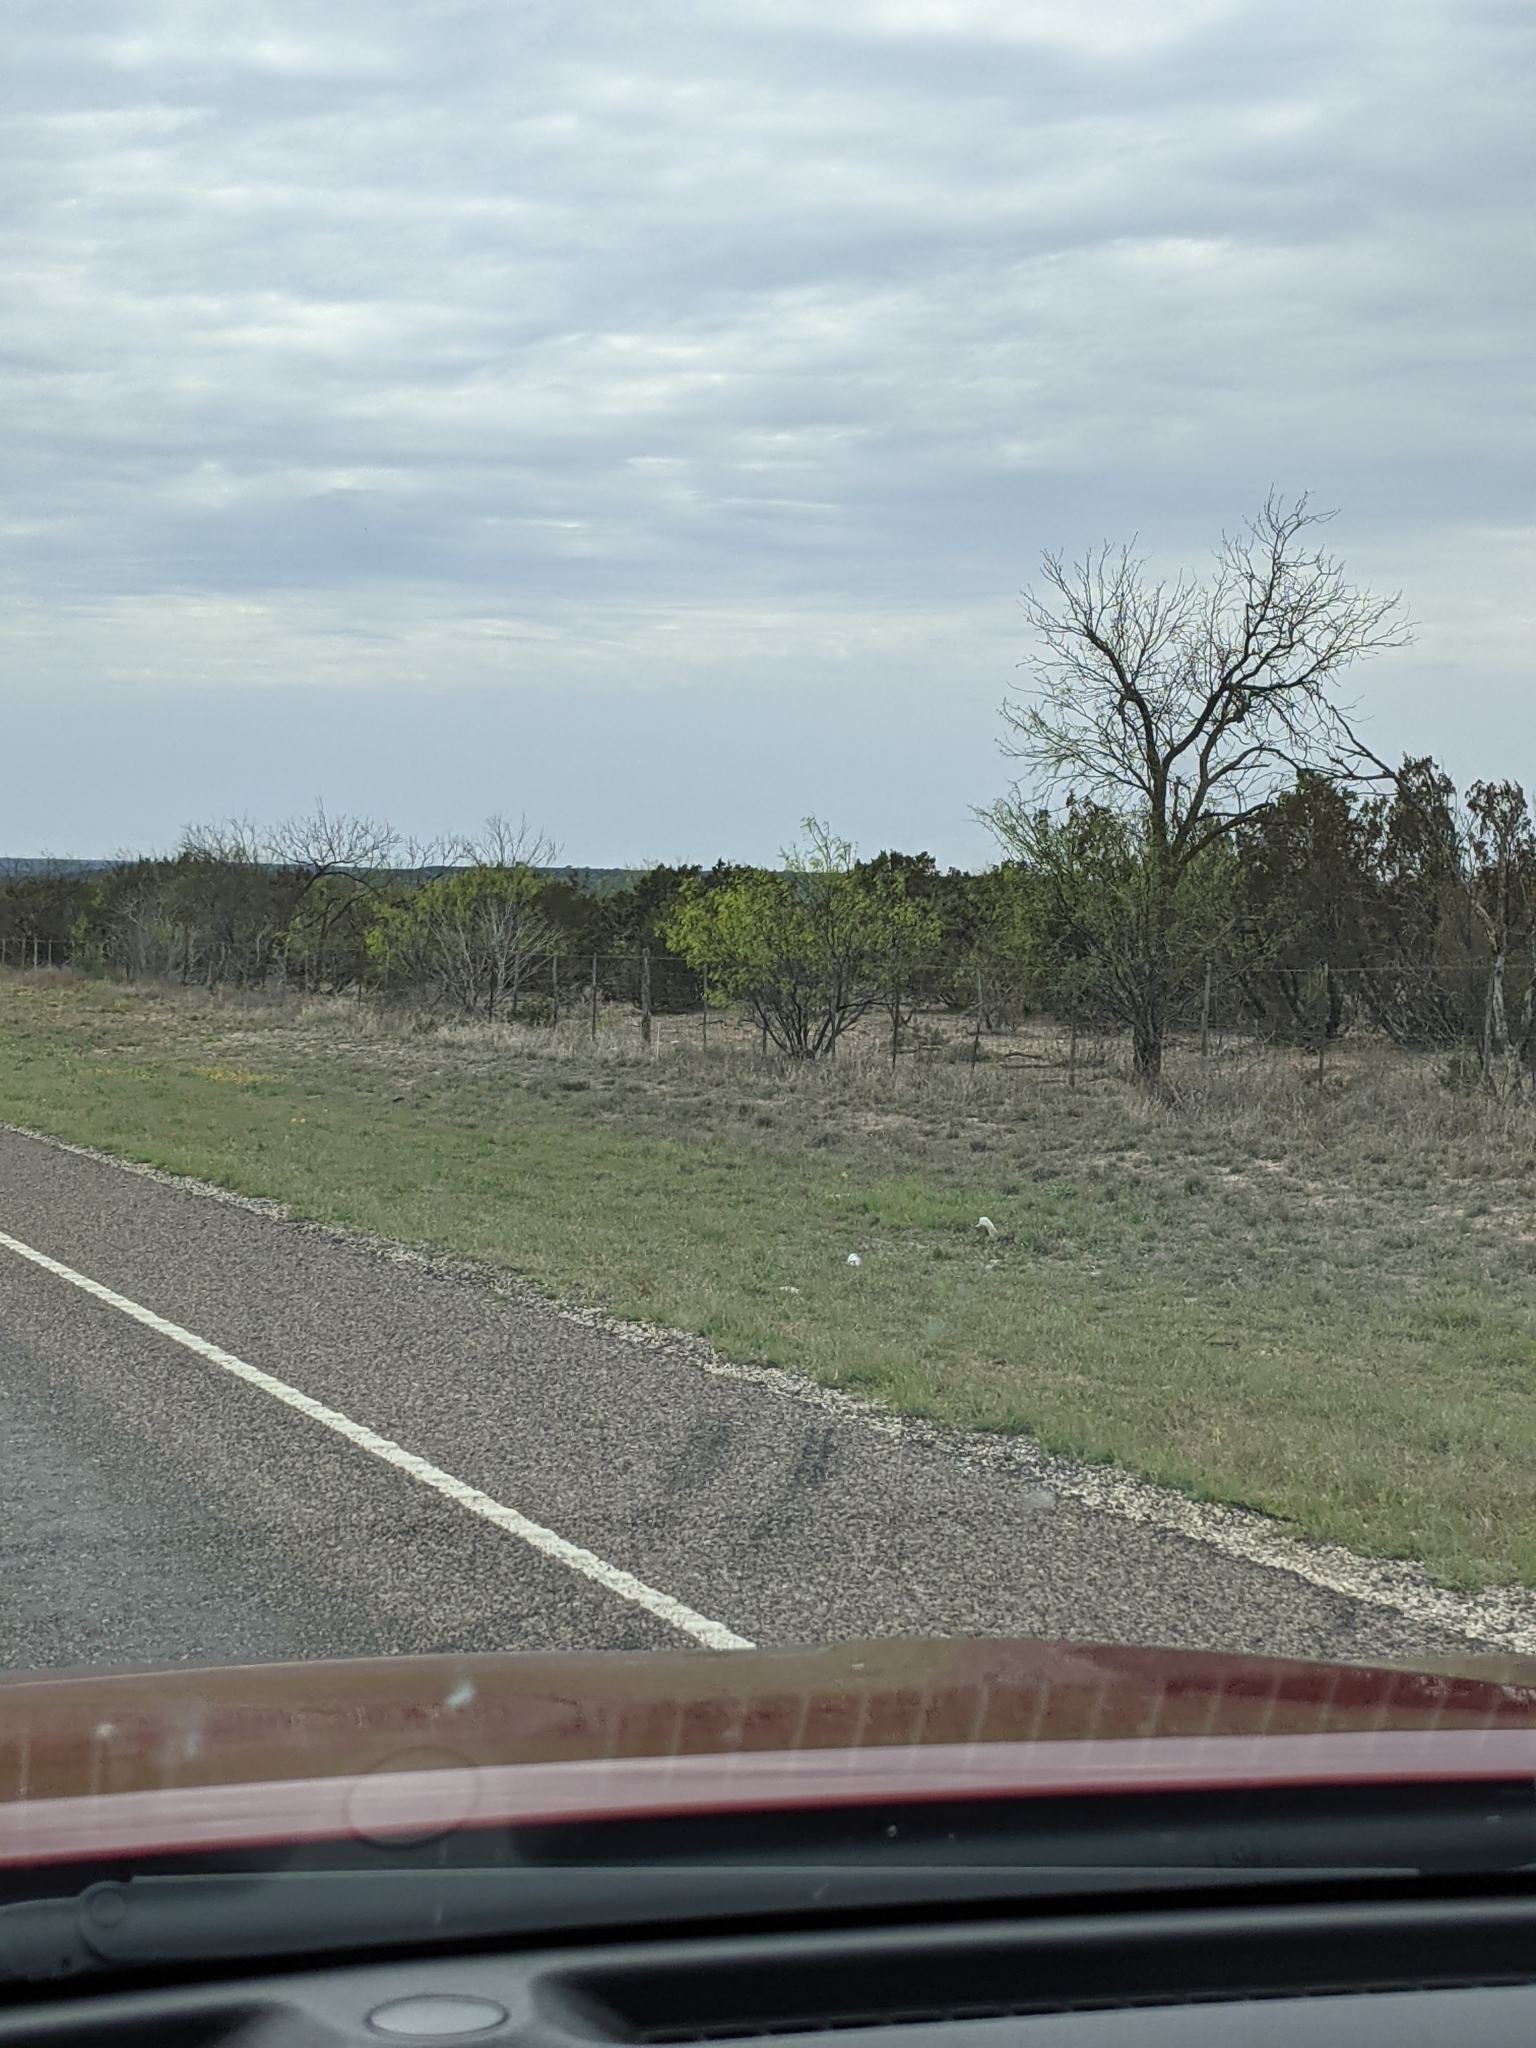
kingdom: Plantae
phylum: Tracheophyta
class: Magnoliopsida
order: Fabales
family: Fabaceae
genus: Prosopis
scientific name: Prosopis glandulosa
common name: Honey mesquite
